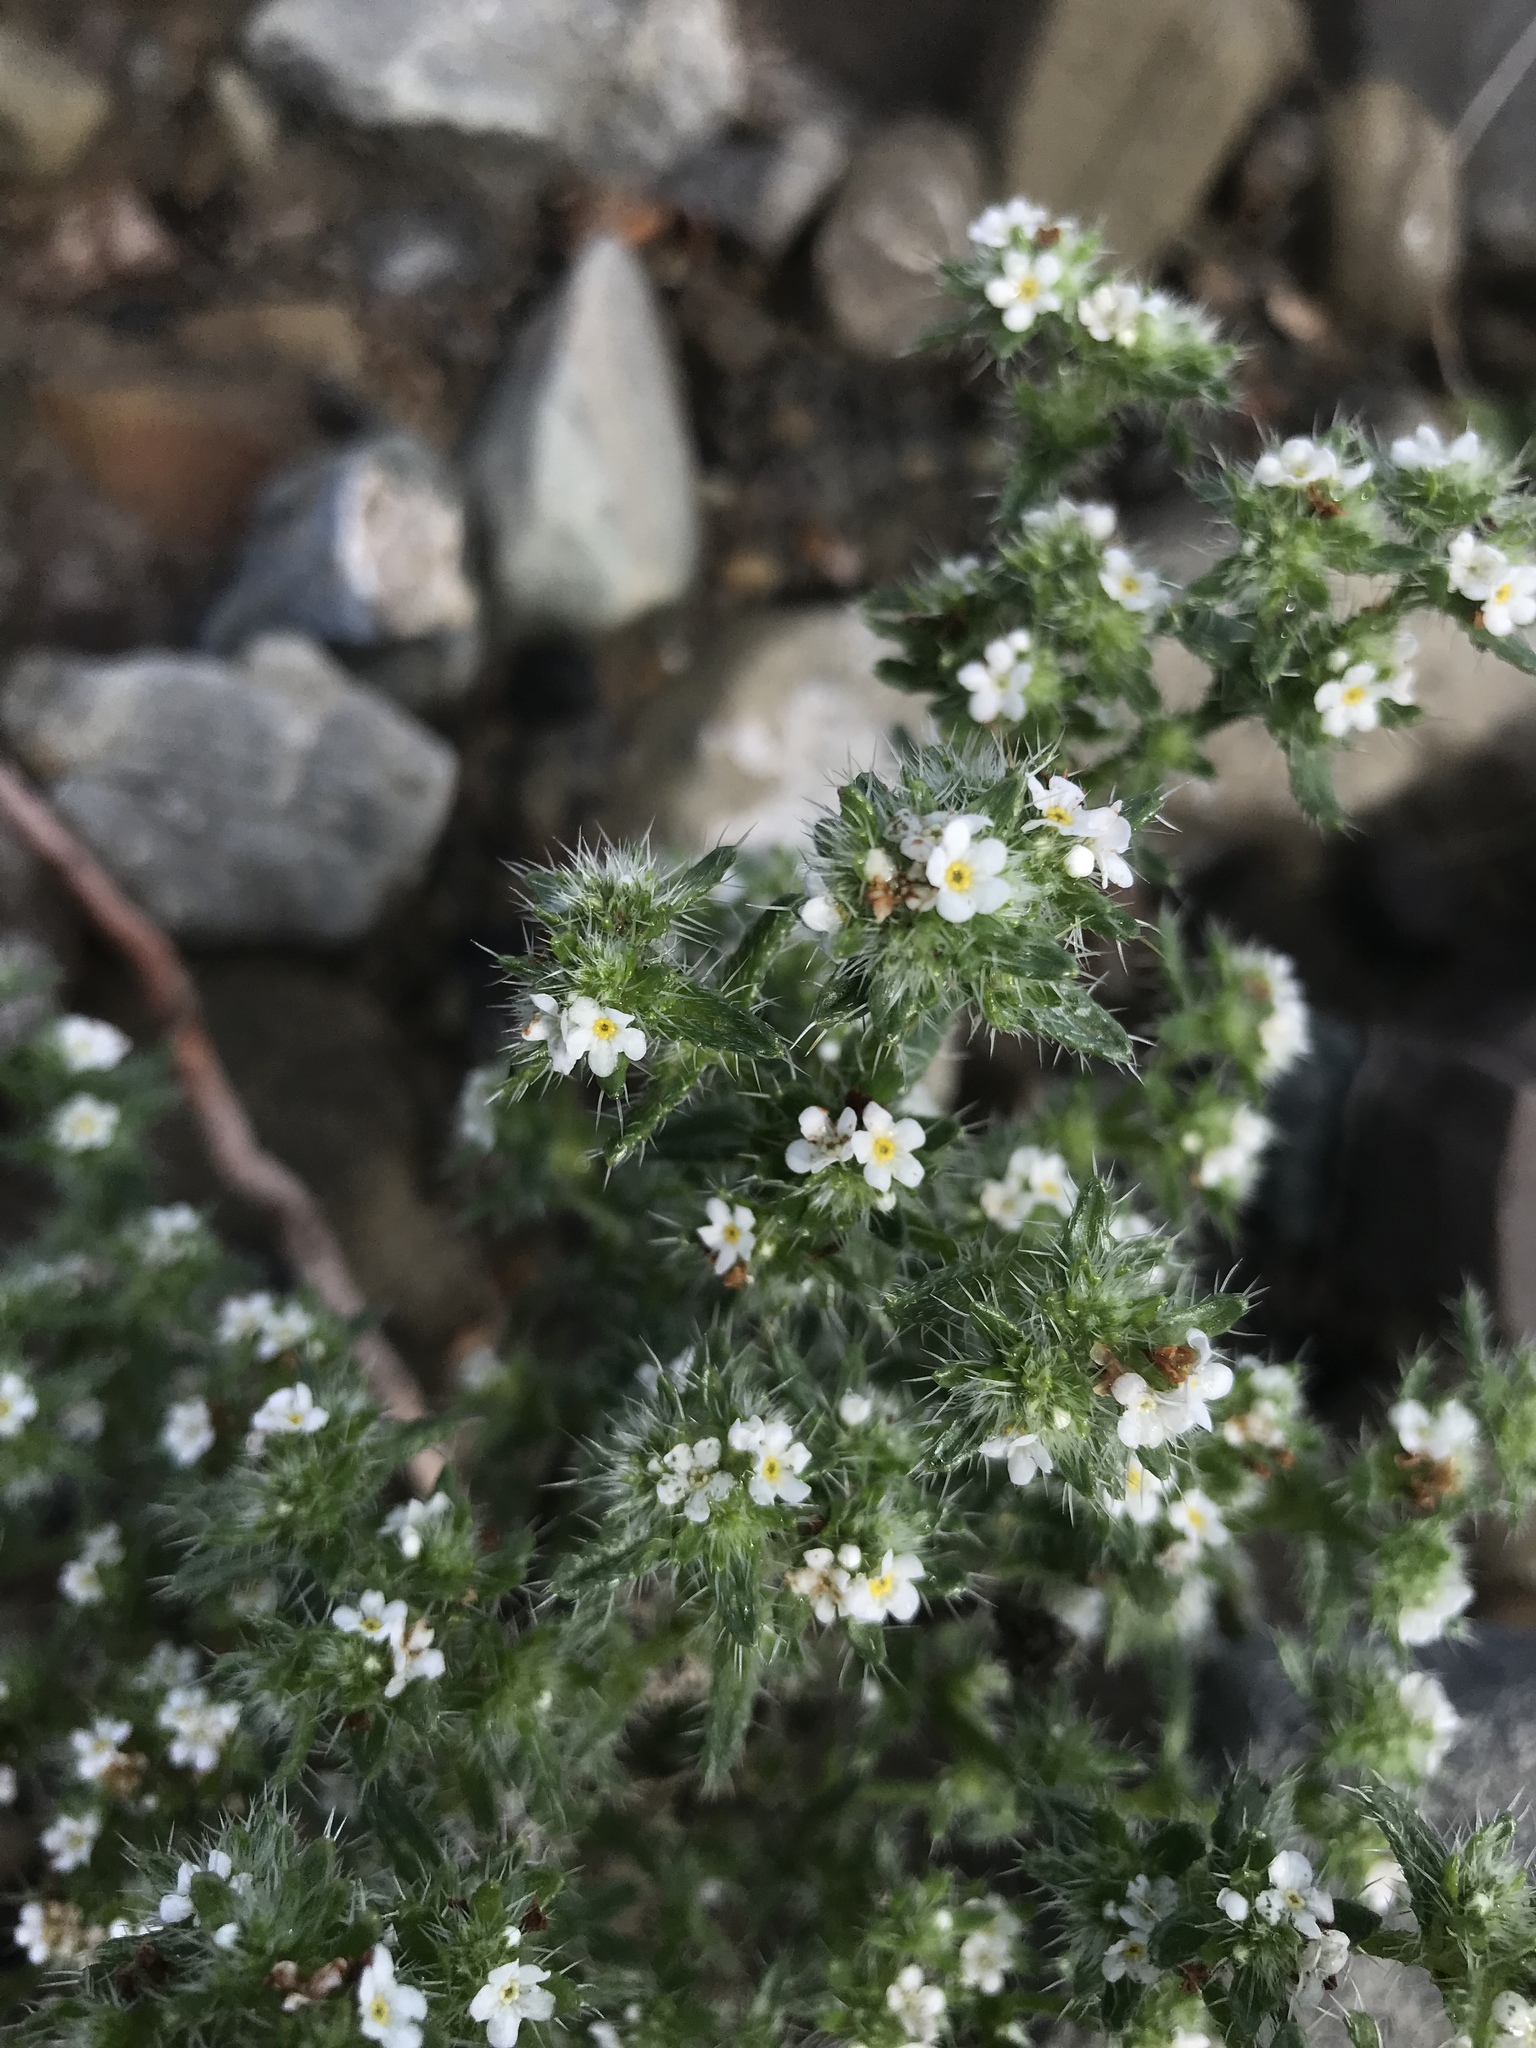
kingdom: Plantae
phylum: Tracheophyta
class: Magnoliopsida
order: Boraginales
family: Boraginaceae
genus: Cryptantha
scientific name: Cryptantha maritima
